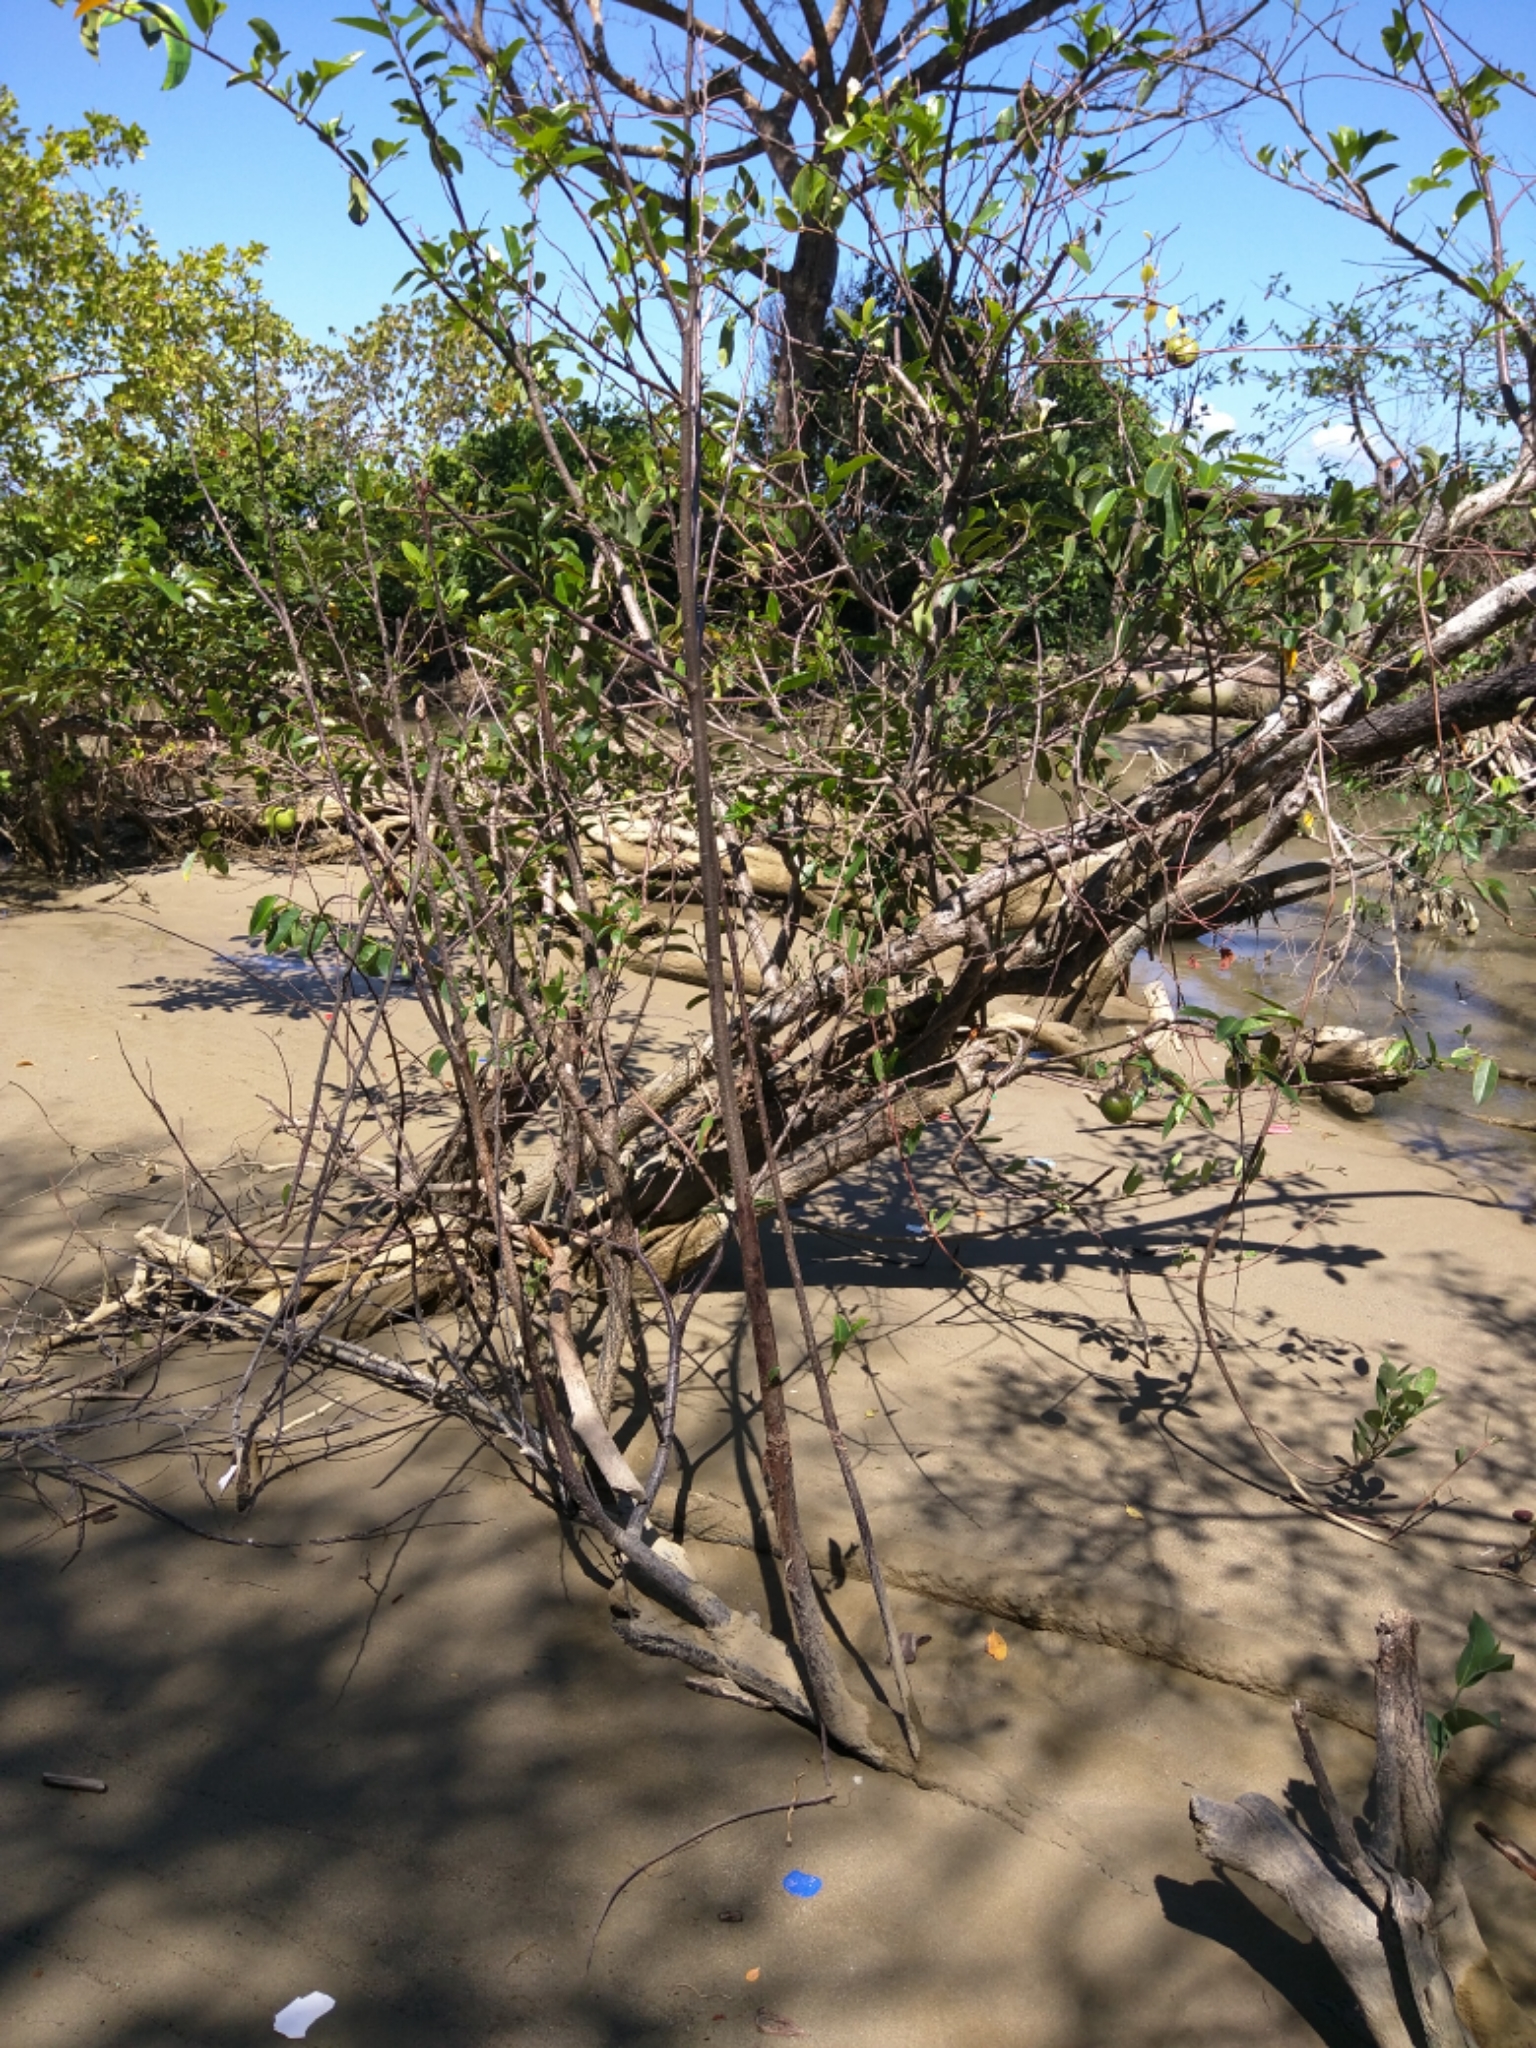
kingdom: Plantae
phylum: Tracheophyta
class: Magnoliopsida
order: Magnoliales
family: Annonaceae
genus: Annona
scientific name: Annona glabra
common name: Monkey apple
